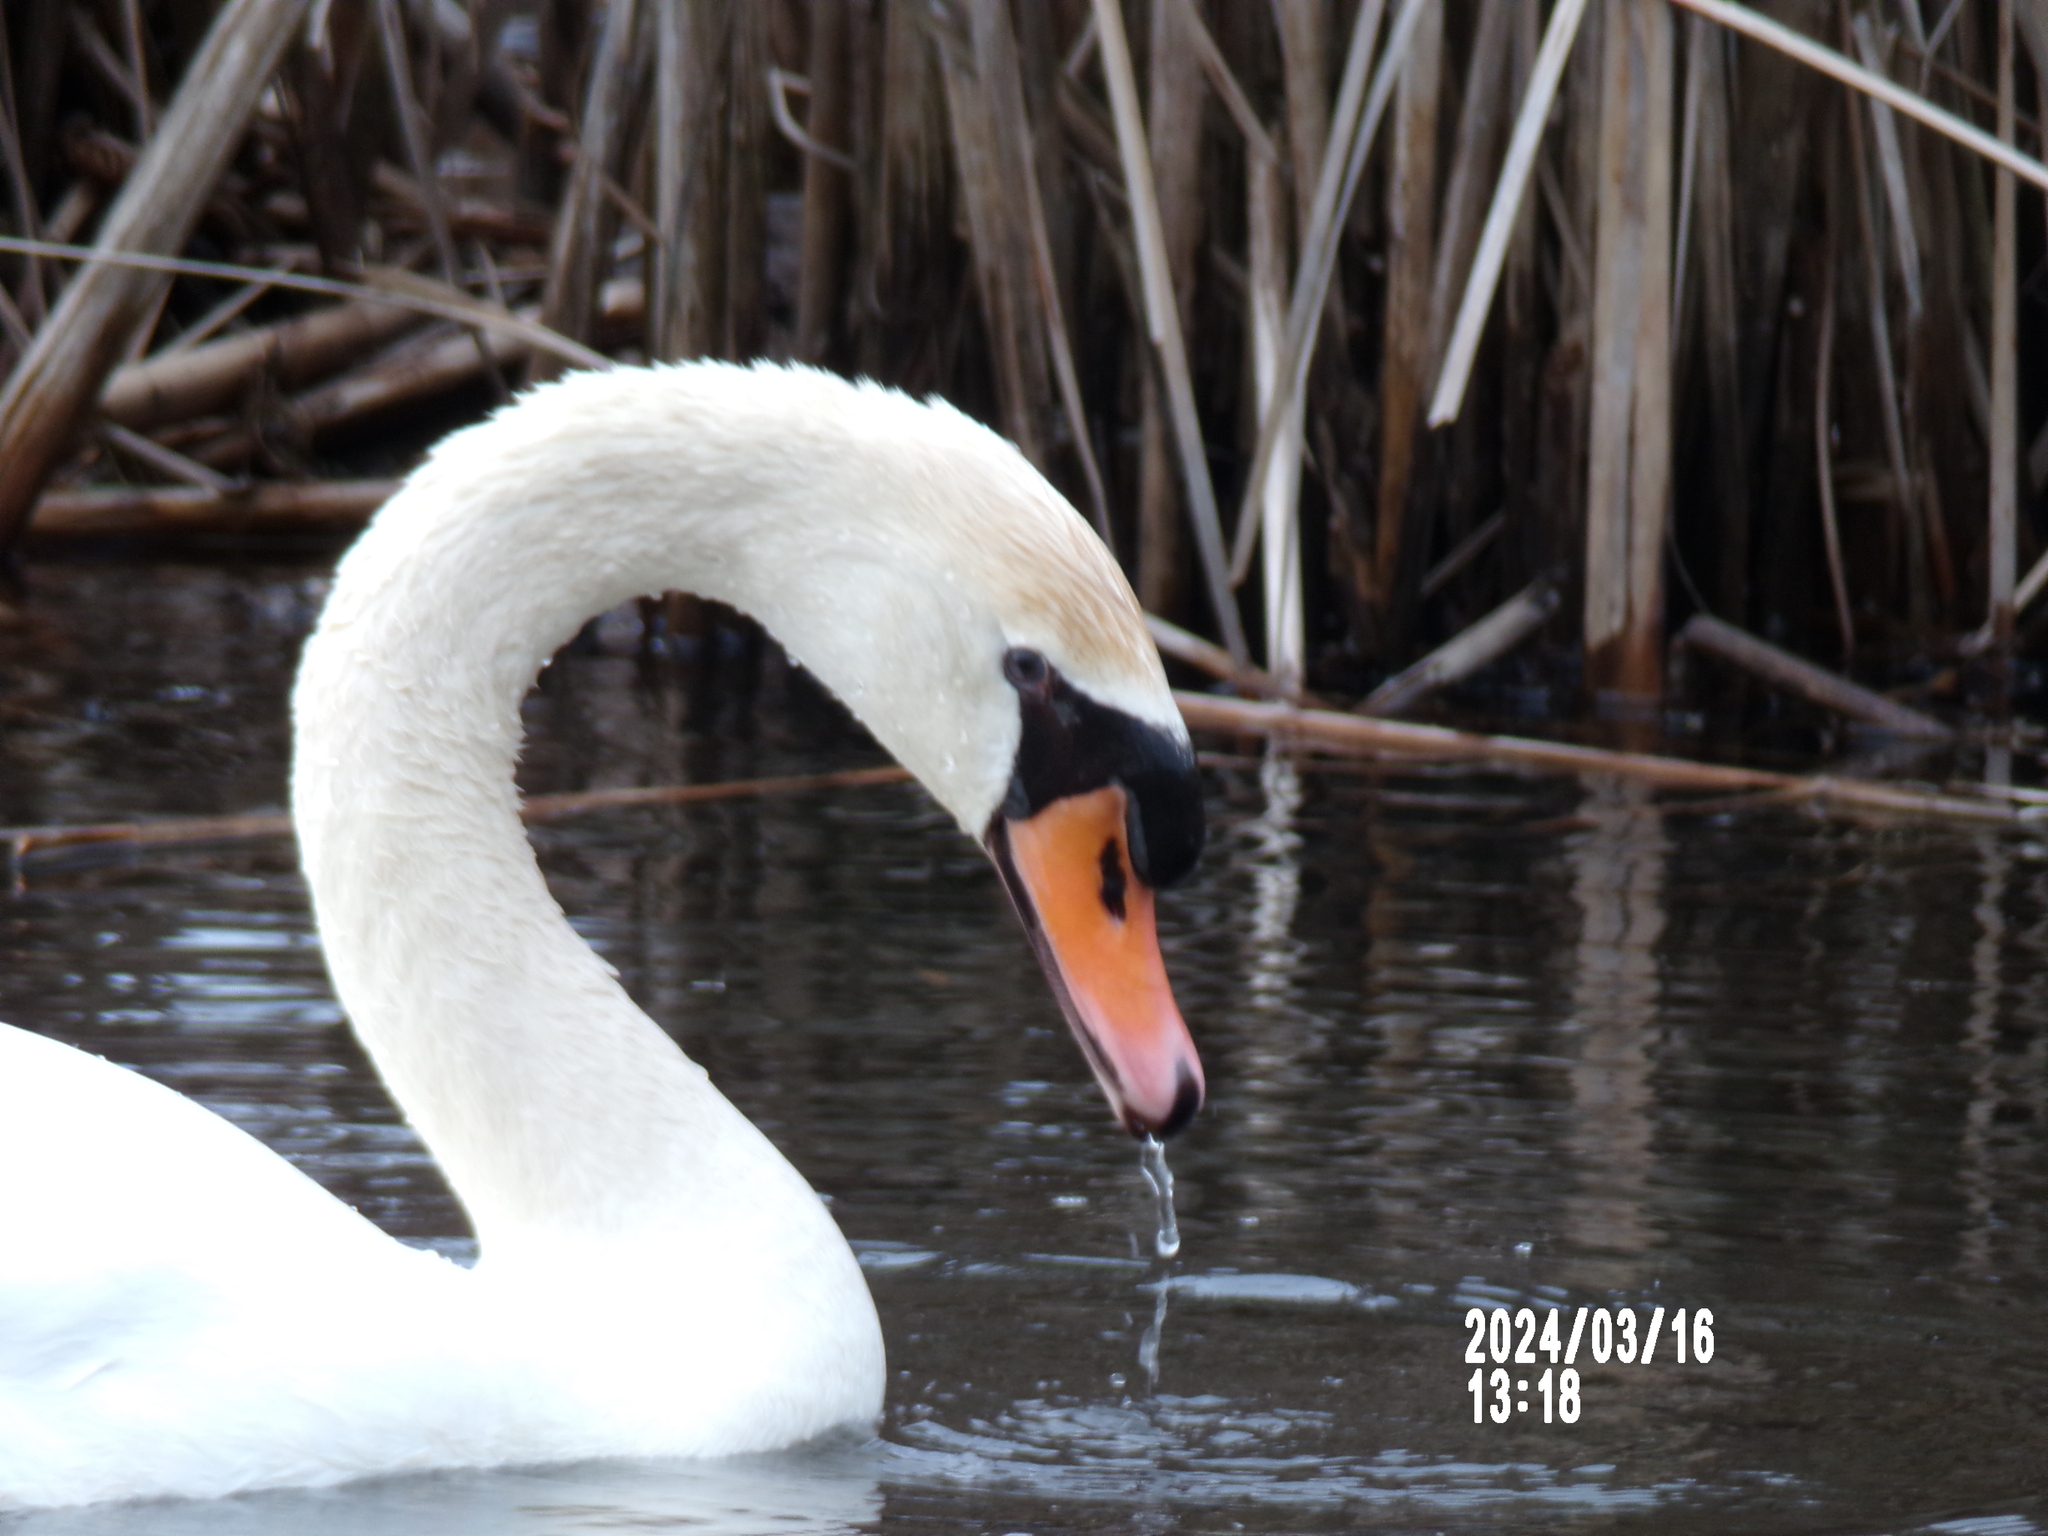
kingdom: Animalia
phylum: Chordata
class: Aves
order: Anseriformes
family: Anatidae
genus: Cygnus
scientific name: Cygnus olor
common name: Mute swan
